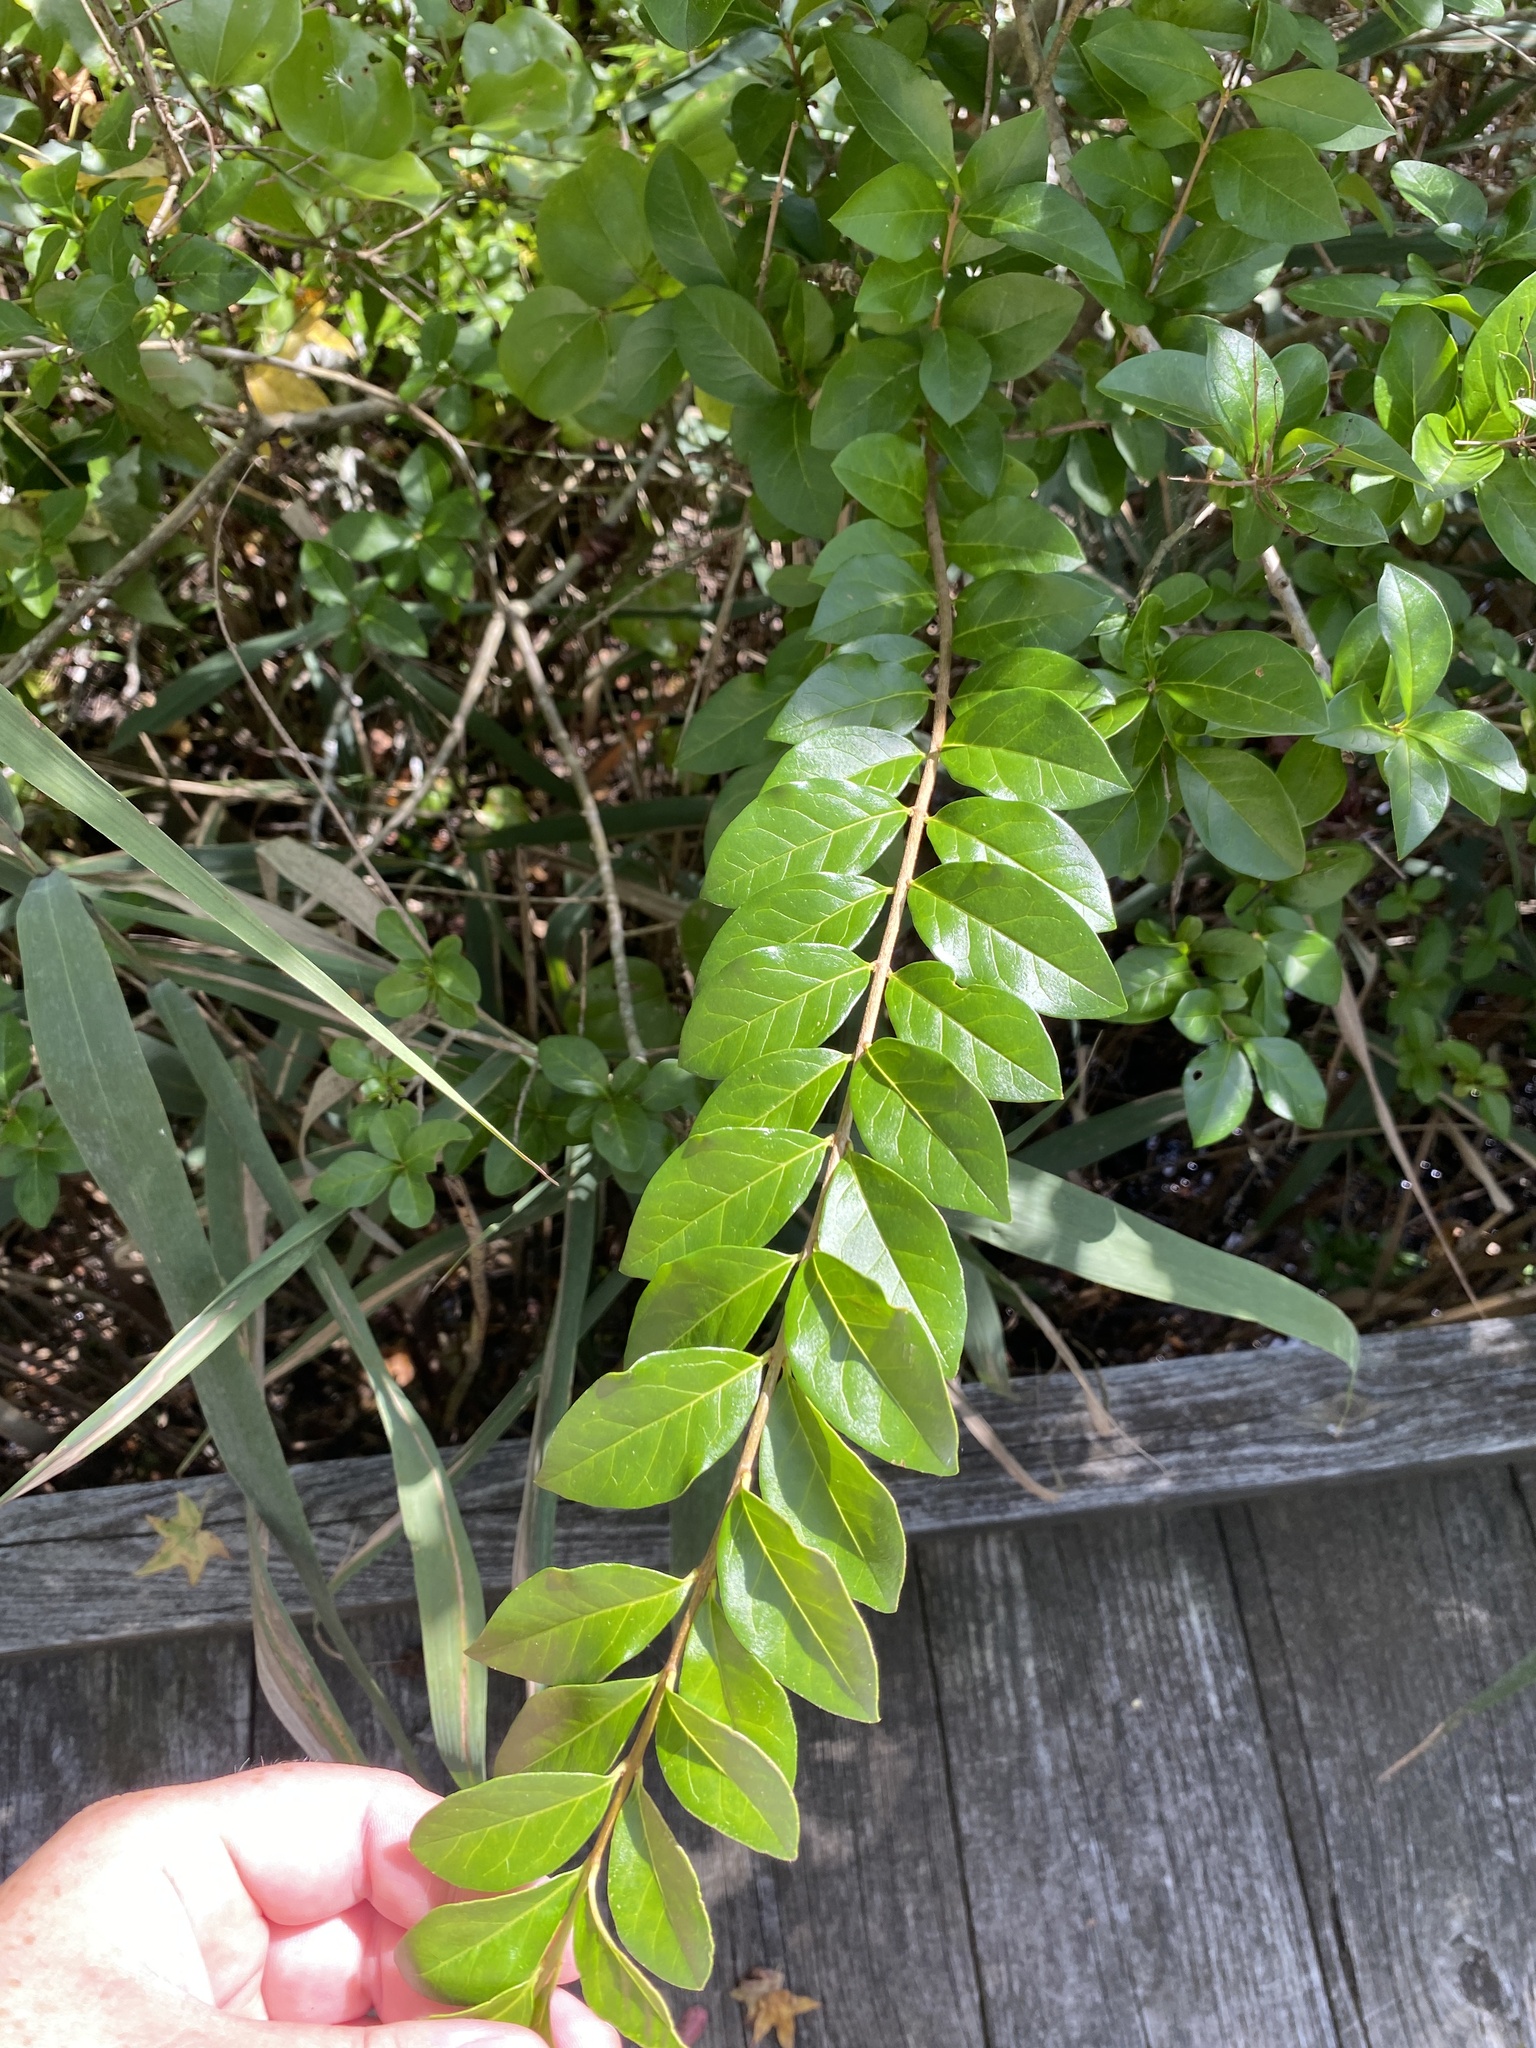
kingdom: Plantae
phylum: Tracheophyta
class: Magnoliopsida
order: Lamiales
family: Oleaceae
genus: Ligustrum
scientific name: Ligustrum ovalifolium
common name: California privet
